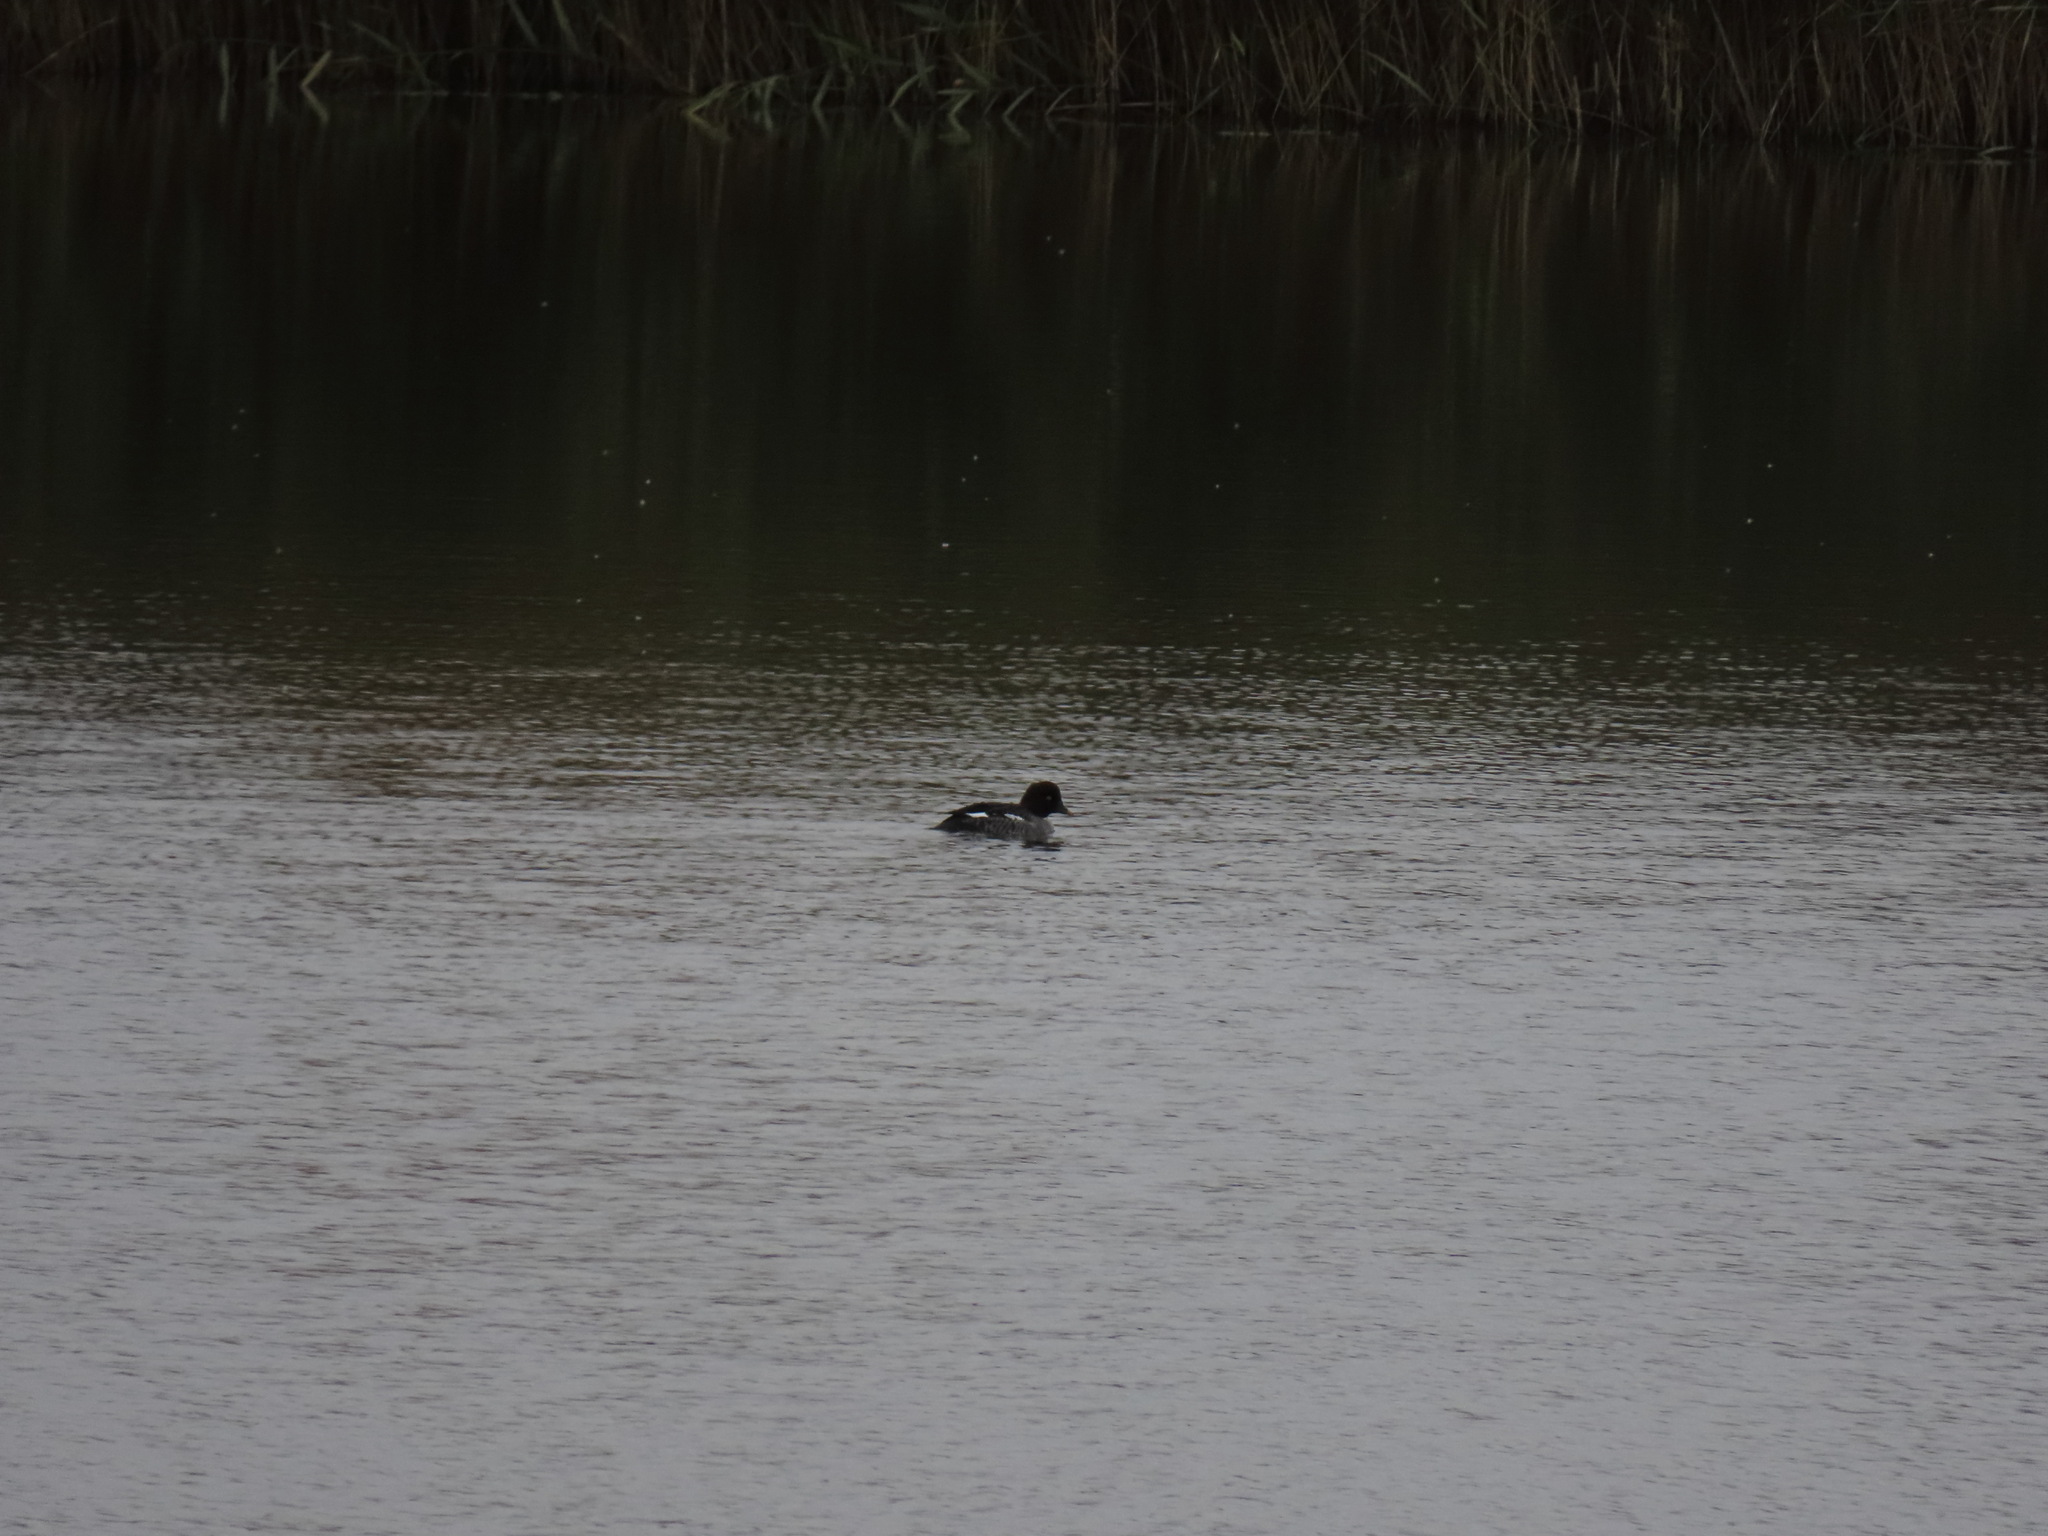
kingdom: Animalia
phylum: Chordata
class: Aves
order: Anseriformes
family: Anatidae
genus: Bucephala
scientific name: Bucephala clangula
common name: Common goldeneye
